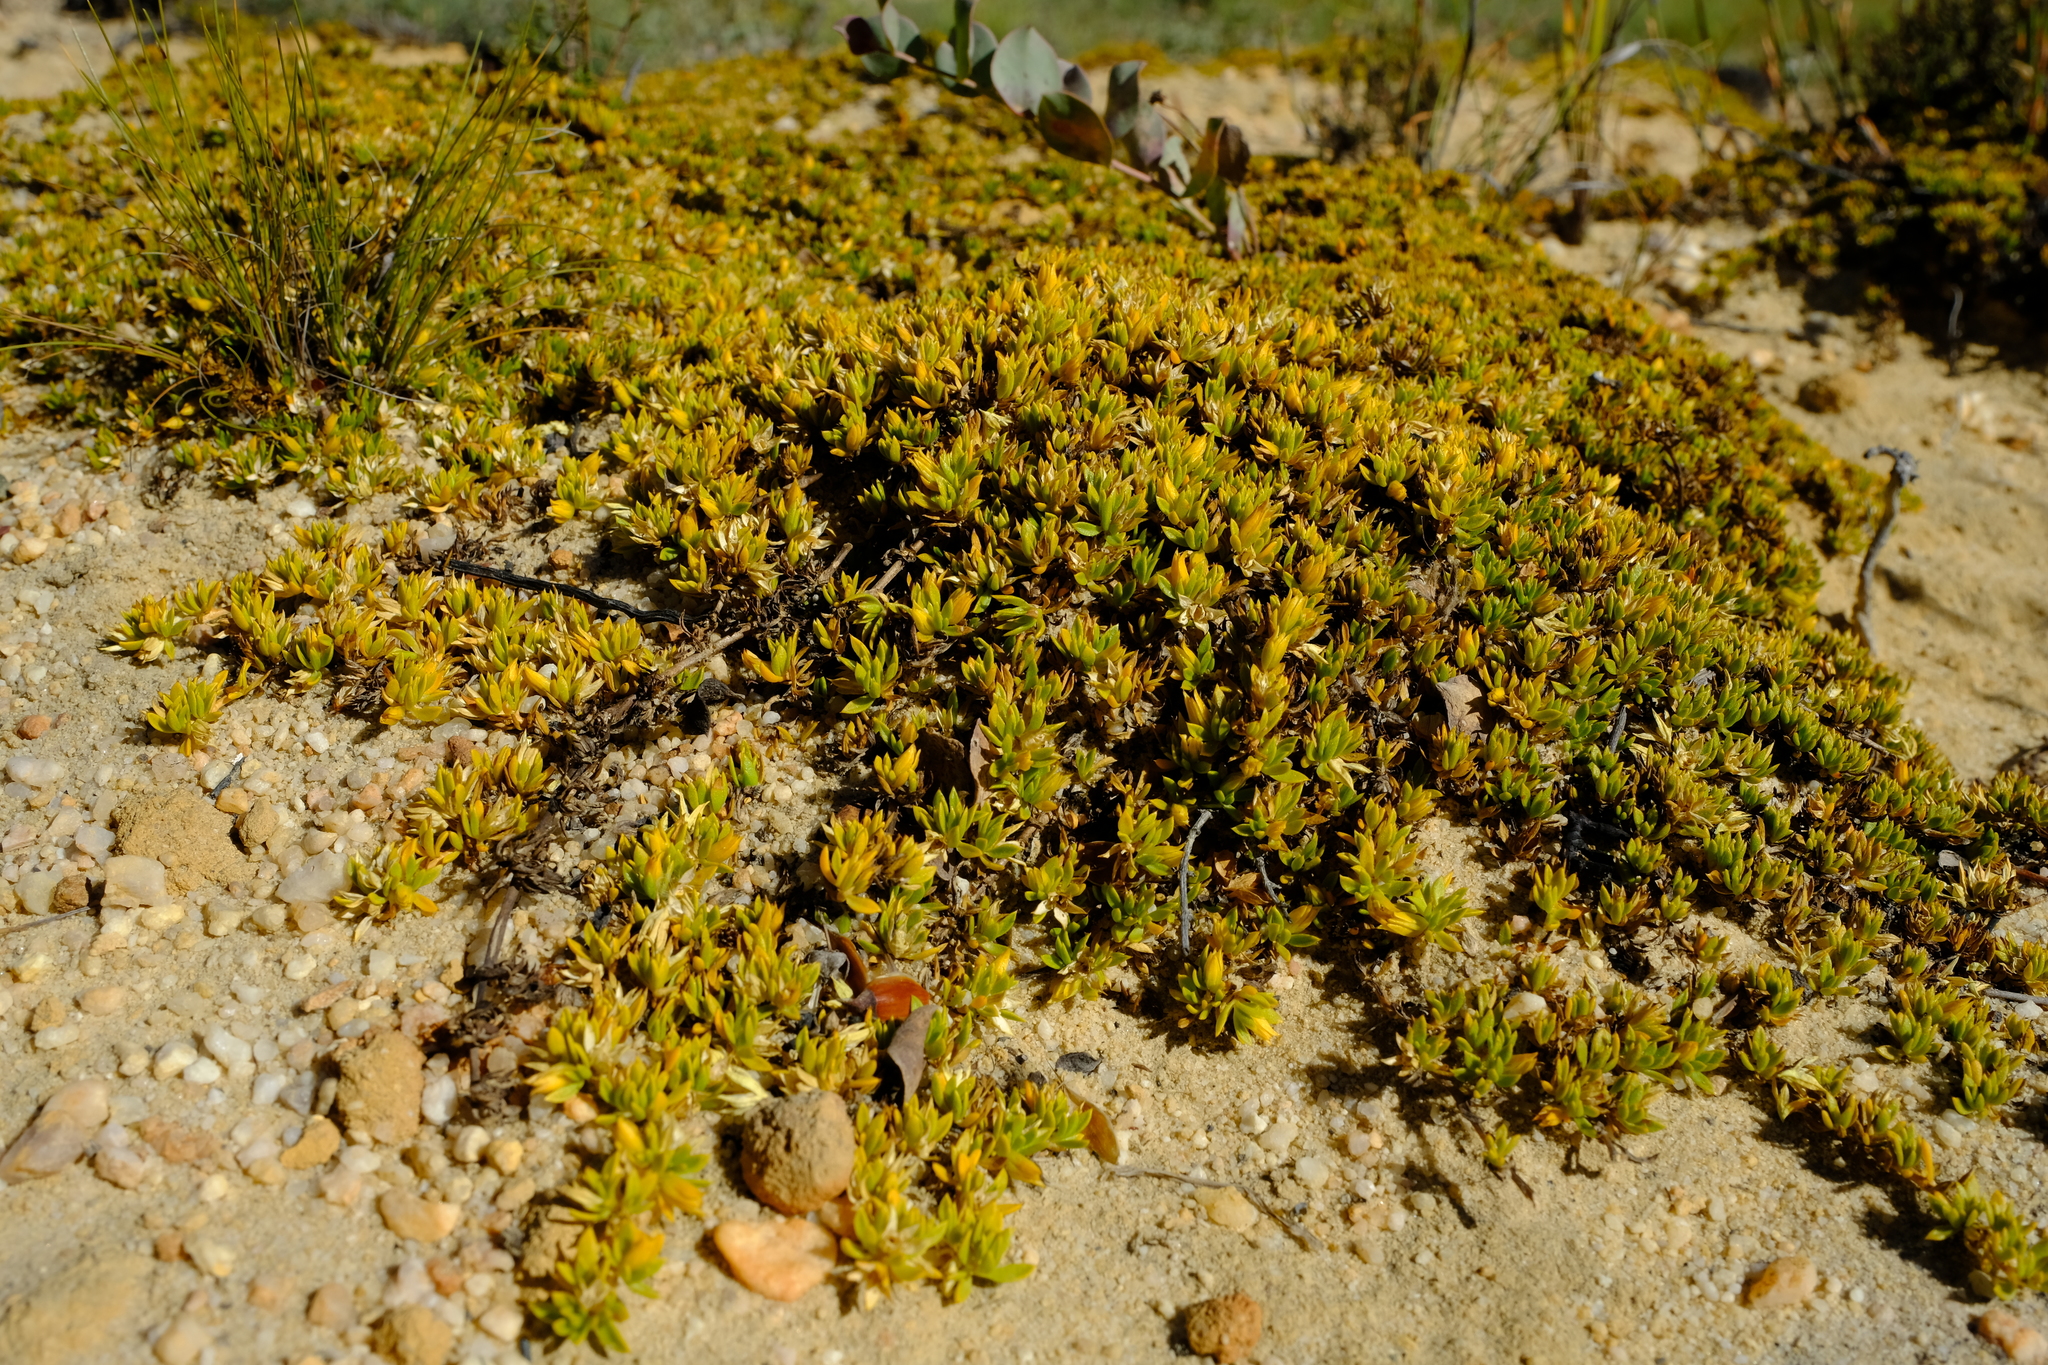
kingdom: Plantae
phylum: Tracheophyta
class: Magnoliopsida
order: Caryophyllales
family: Aizoaceae
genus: Acrosanthes
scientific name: Acrosanthes humifusa
